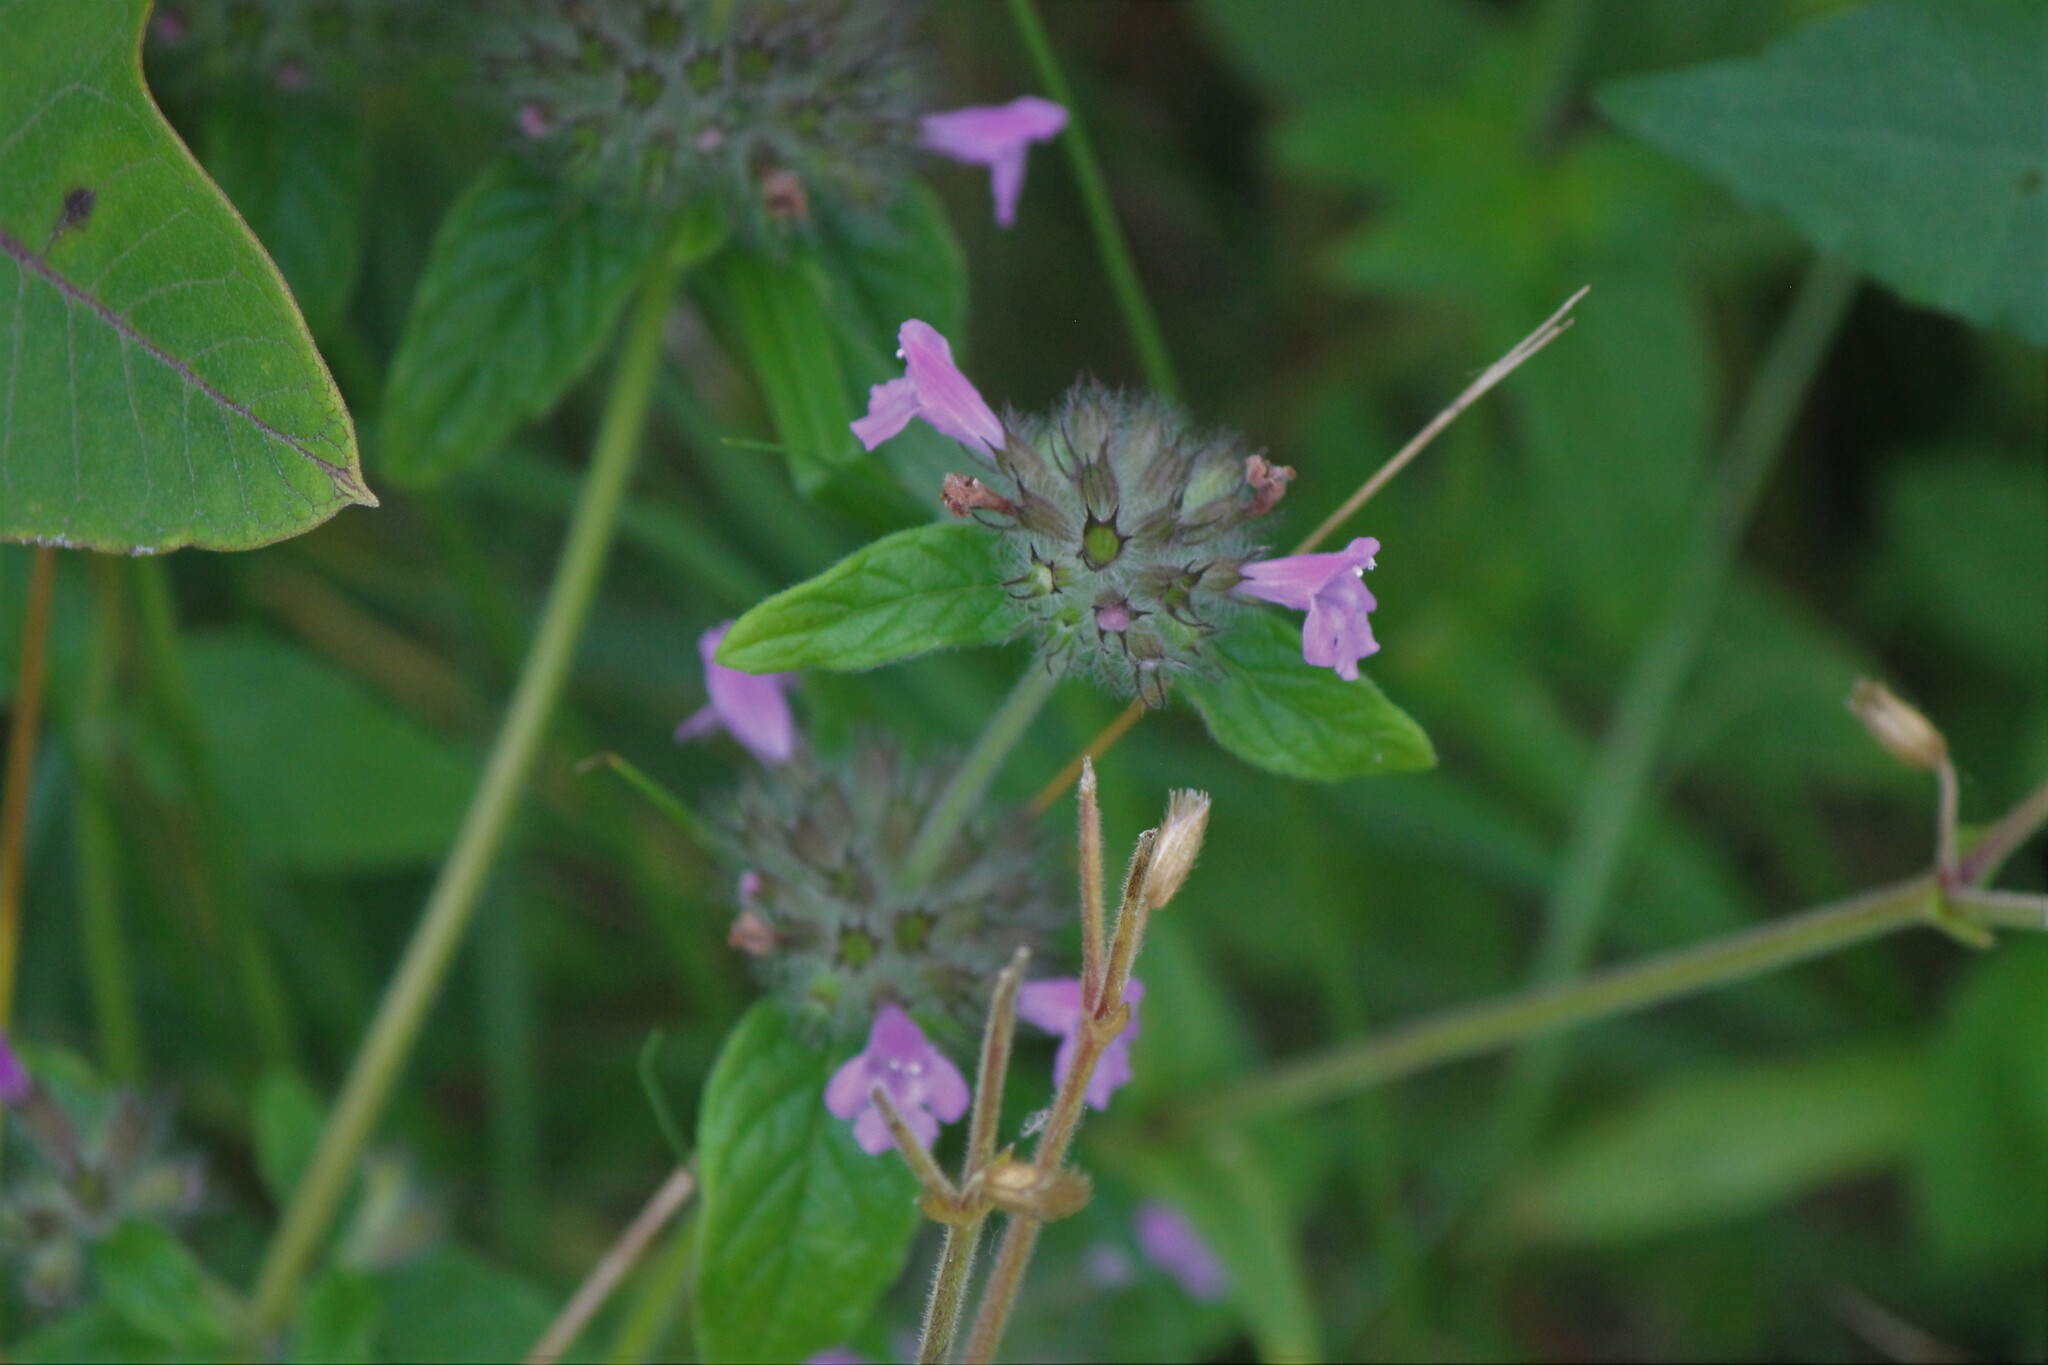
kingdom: Plantae
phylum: Tracheophyta
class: Magnoliopsida
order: Lamiales
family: Lamiaceae
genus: Clinopodium
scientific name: Clinopodium vulgare
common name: Wild basil
